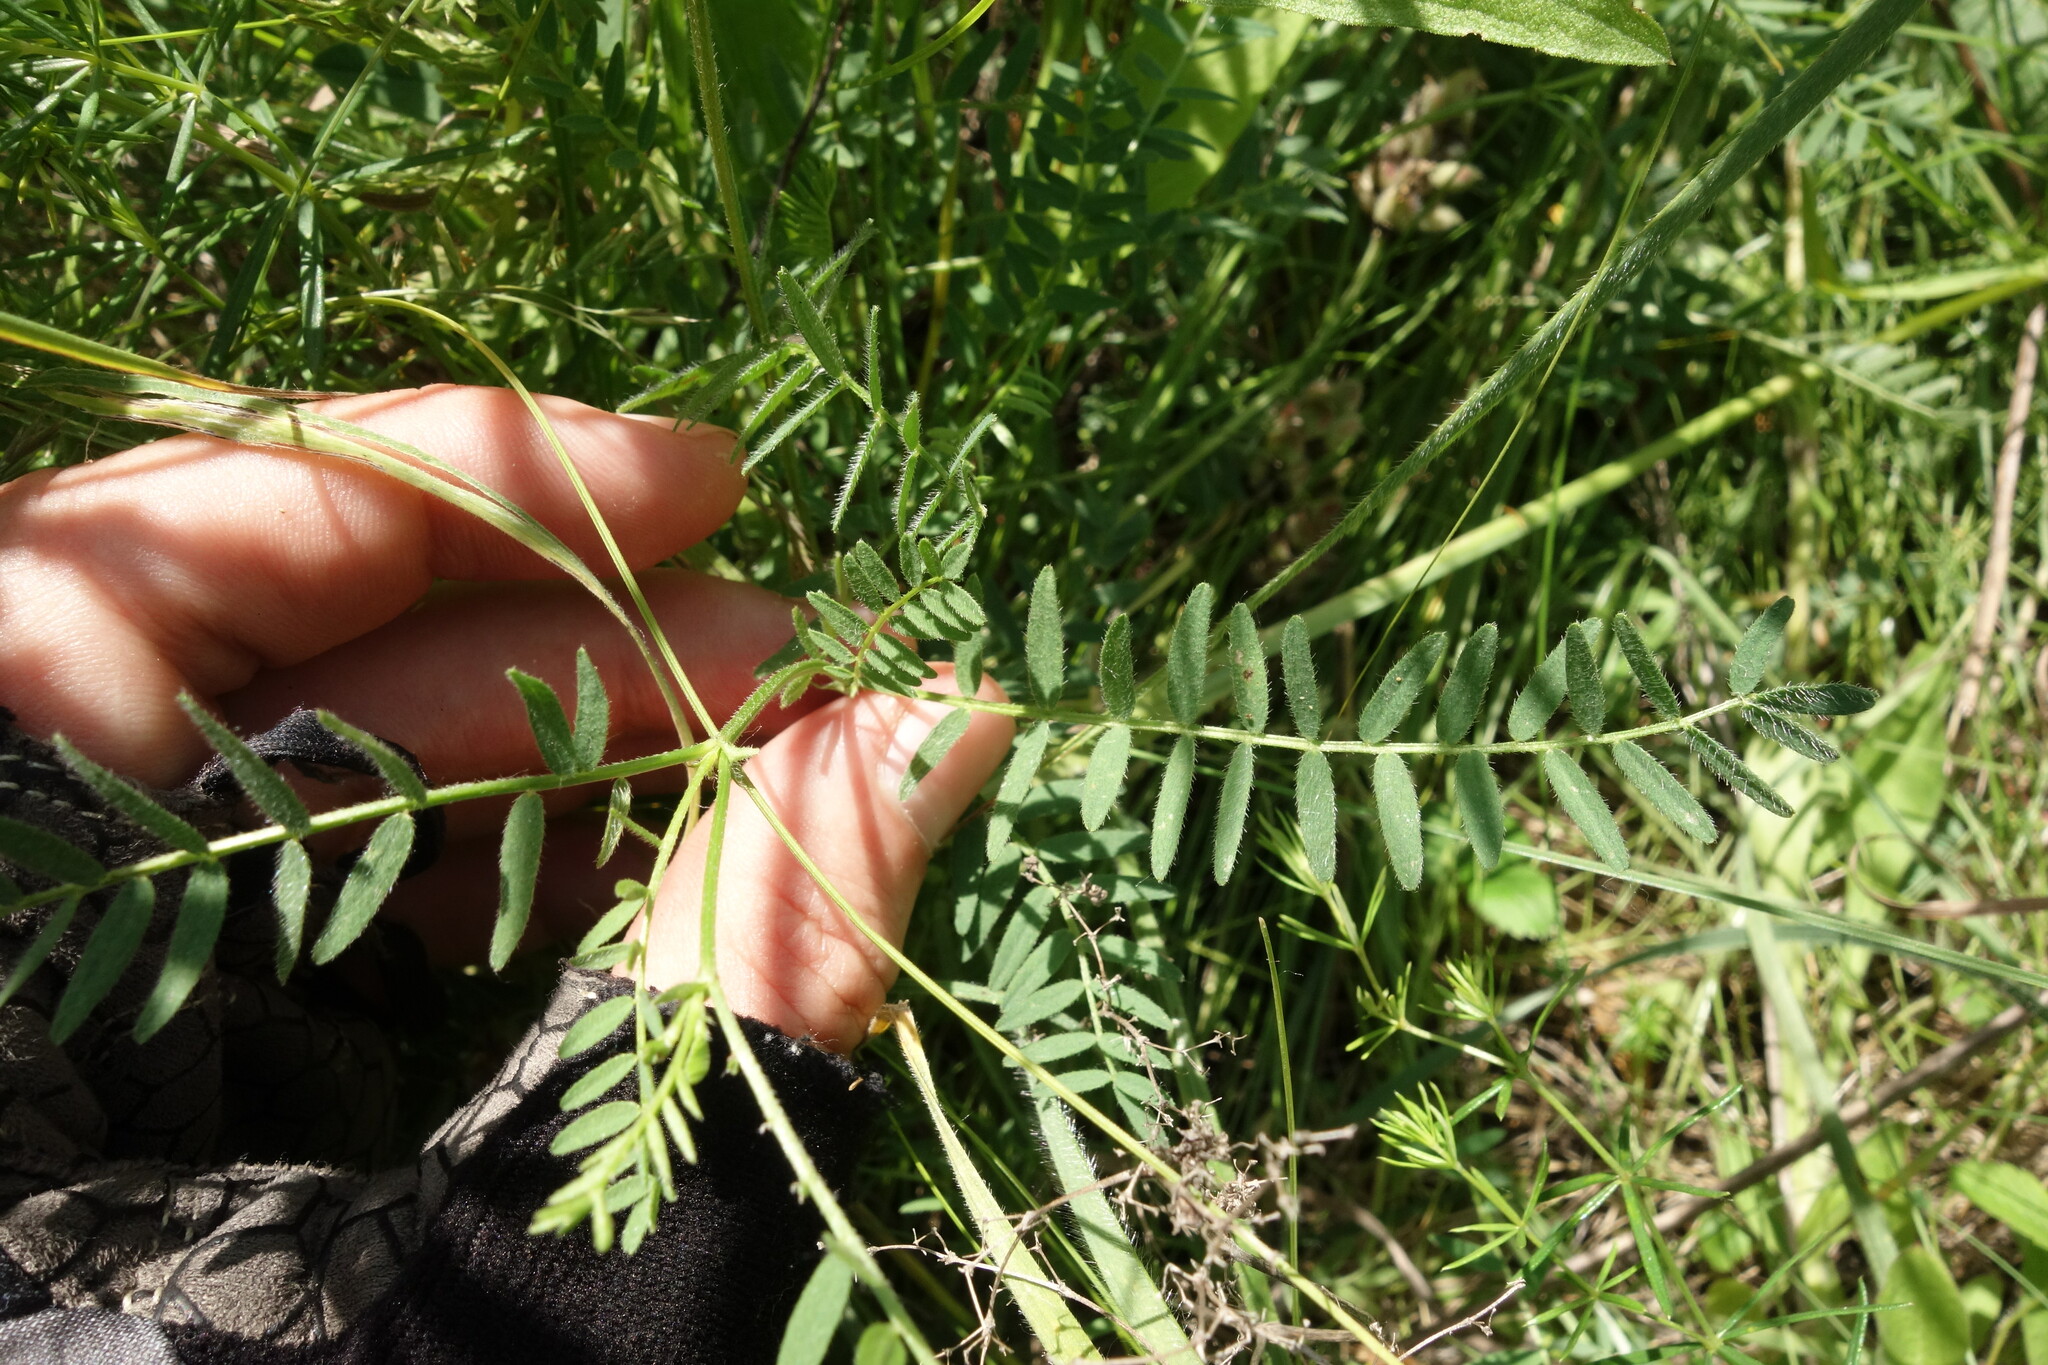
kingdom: Plantae
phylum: Tracheophyta
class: Magnoliopsida
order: Fabales
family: Fabaceae
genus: Astragalus
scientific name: Astragalus danicus
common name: Purple milk-vetch
